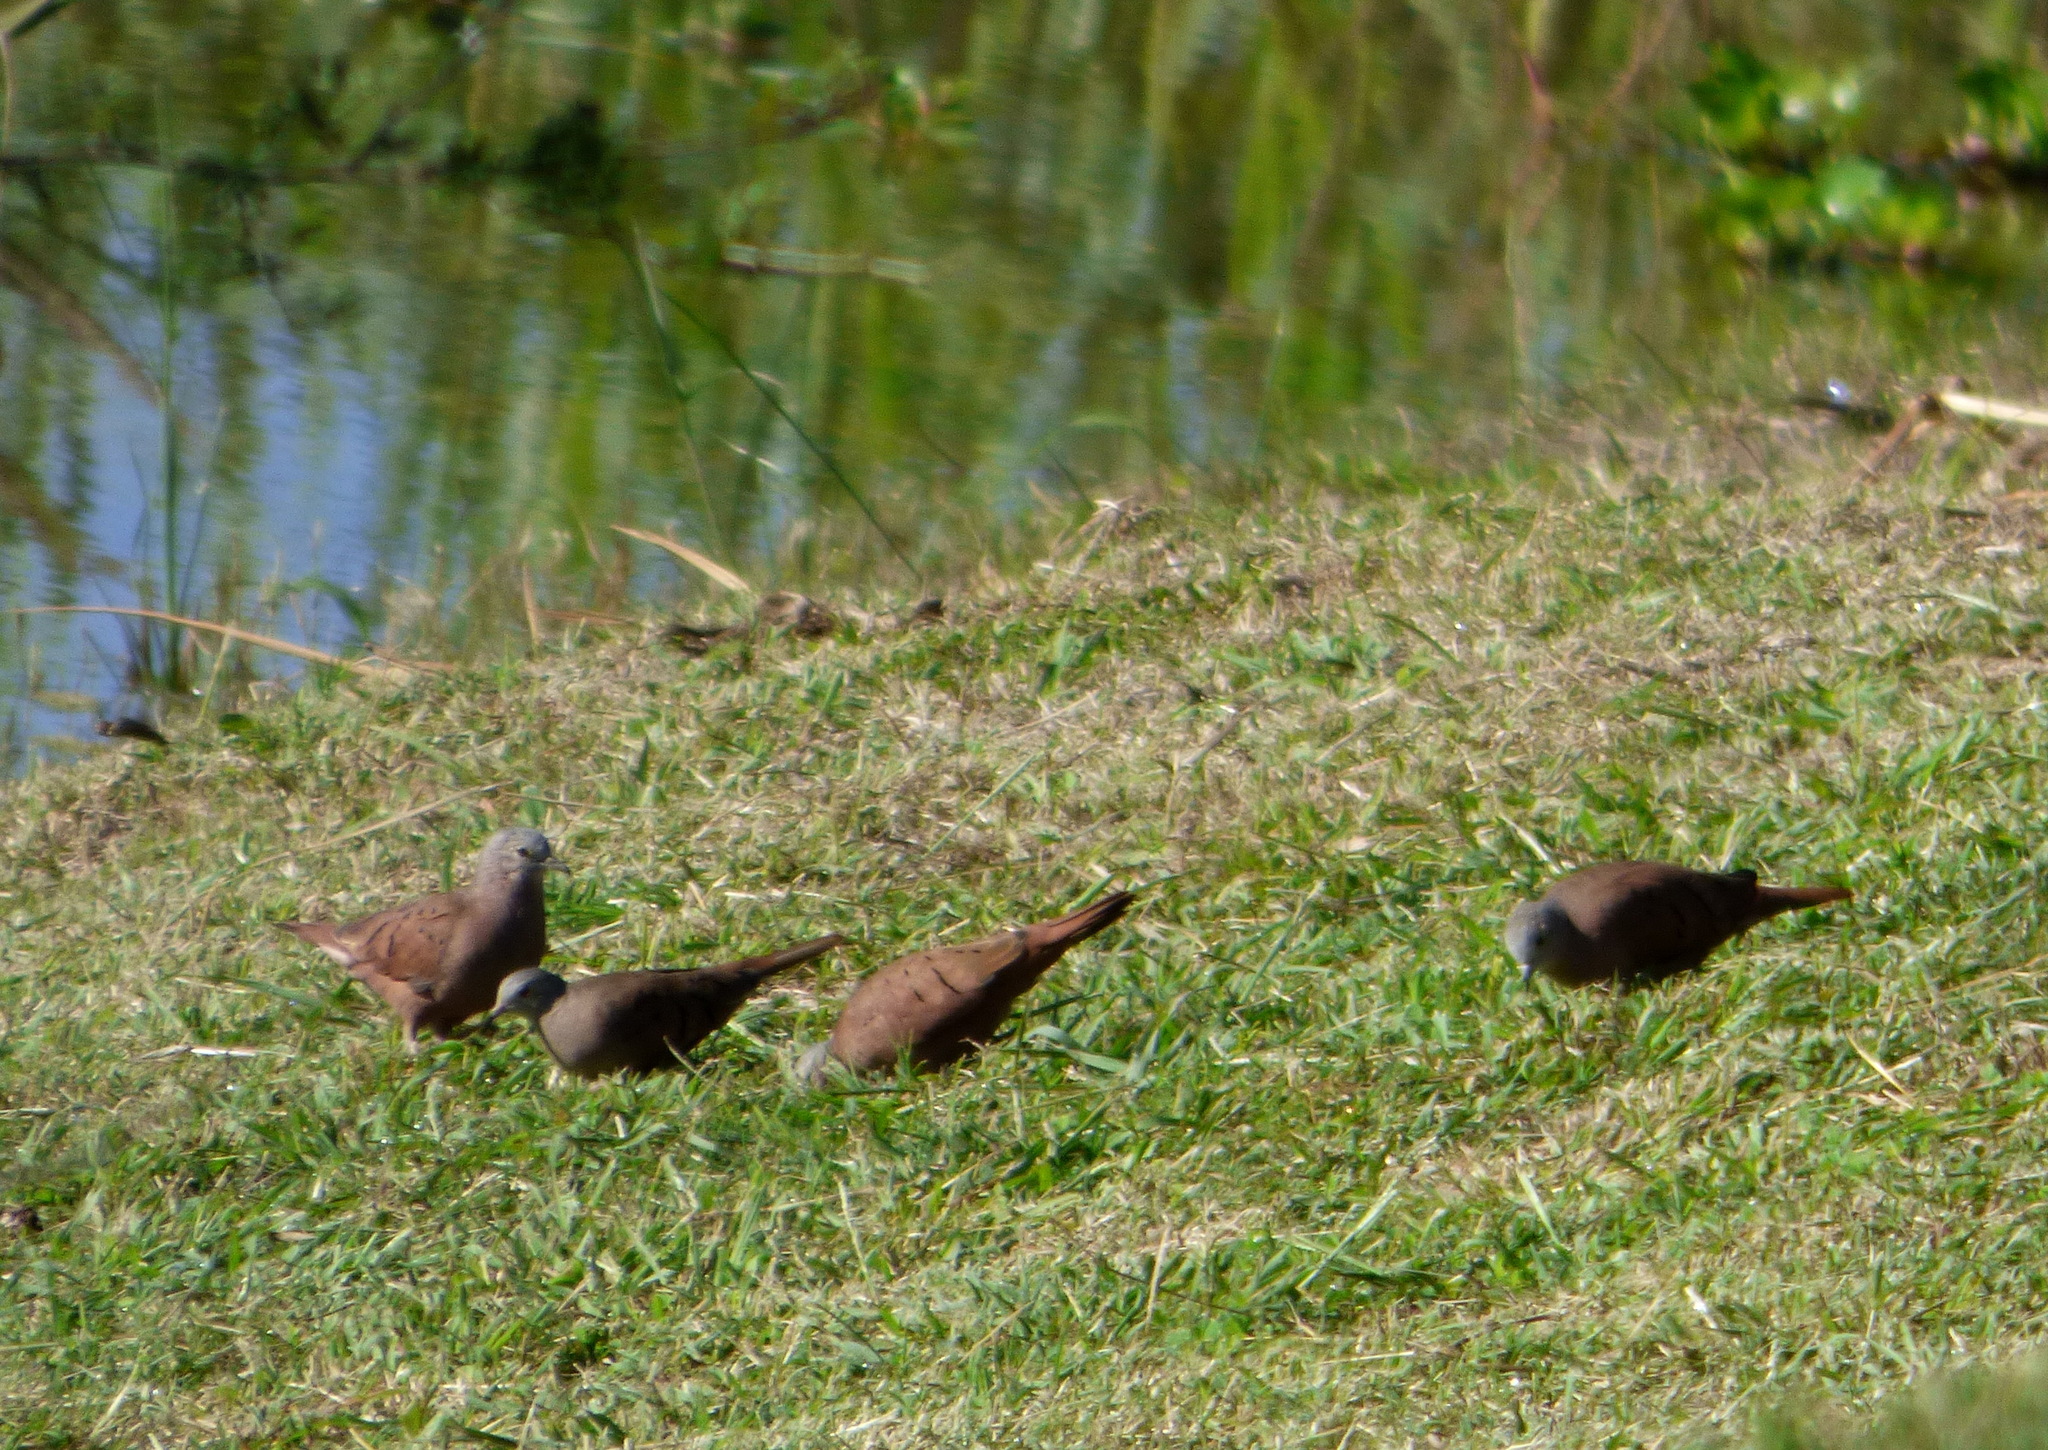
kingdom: Animalia
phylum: Chordata
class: Aves
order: Columbiformes
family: Columbidae
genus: Columbina
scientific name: Columbina talpacoti
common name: Ruddy ground dove
